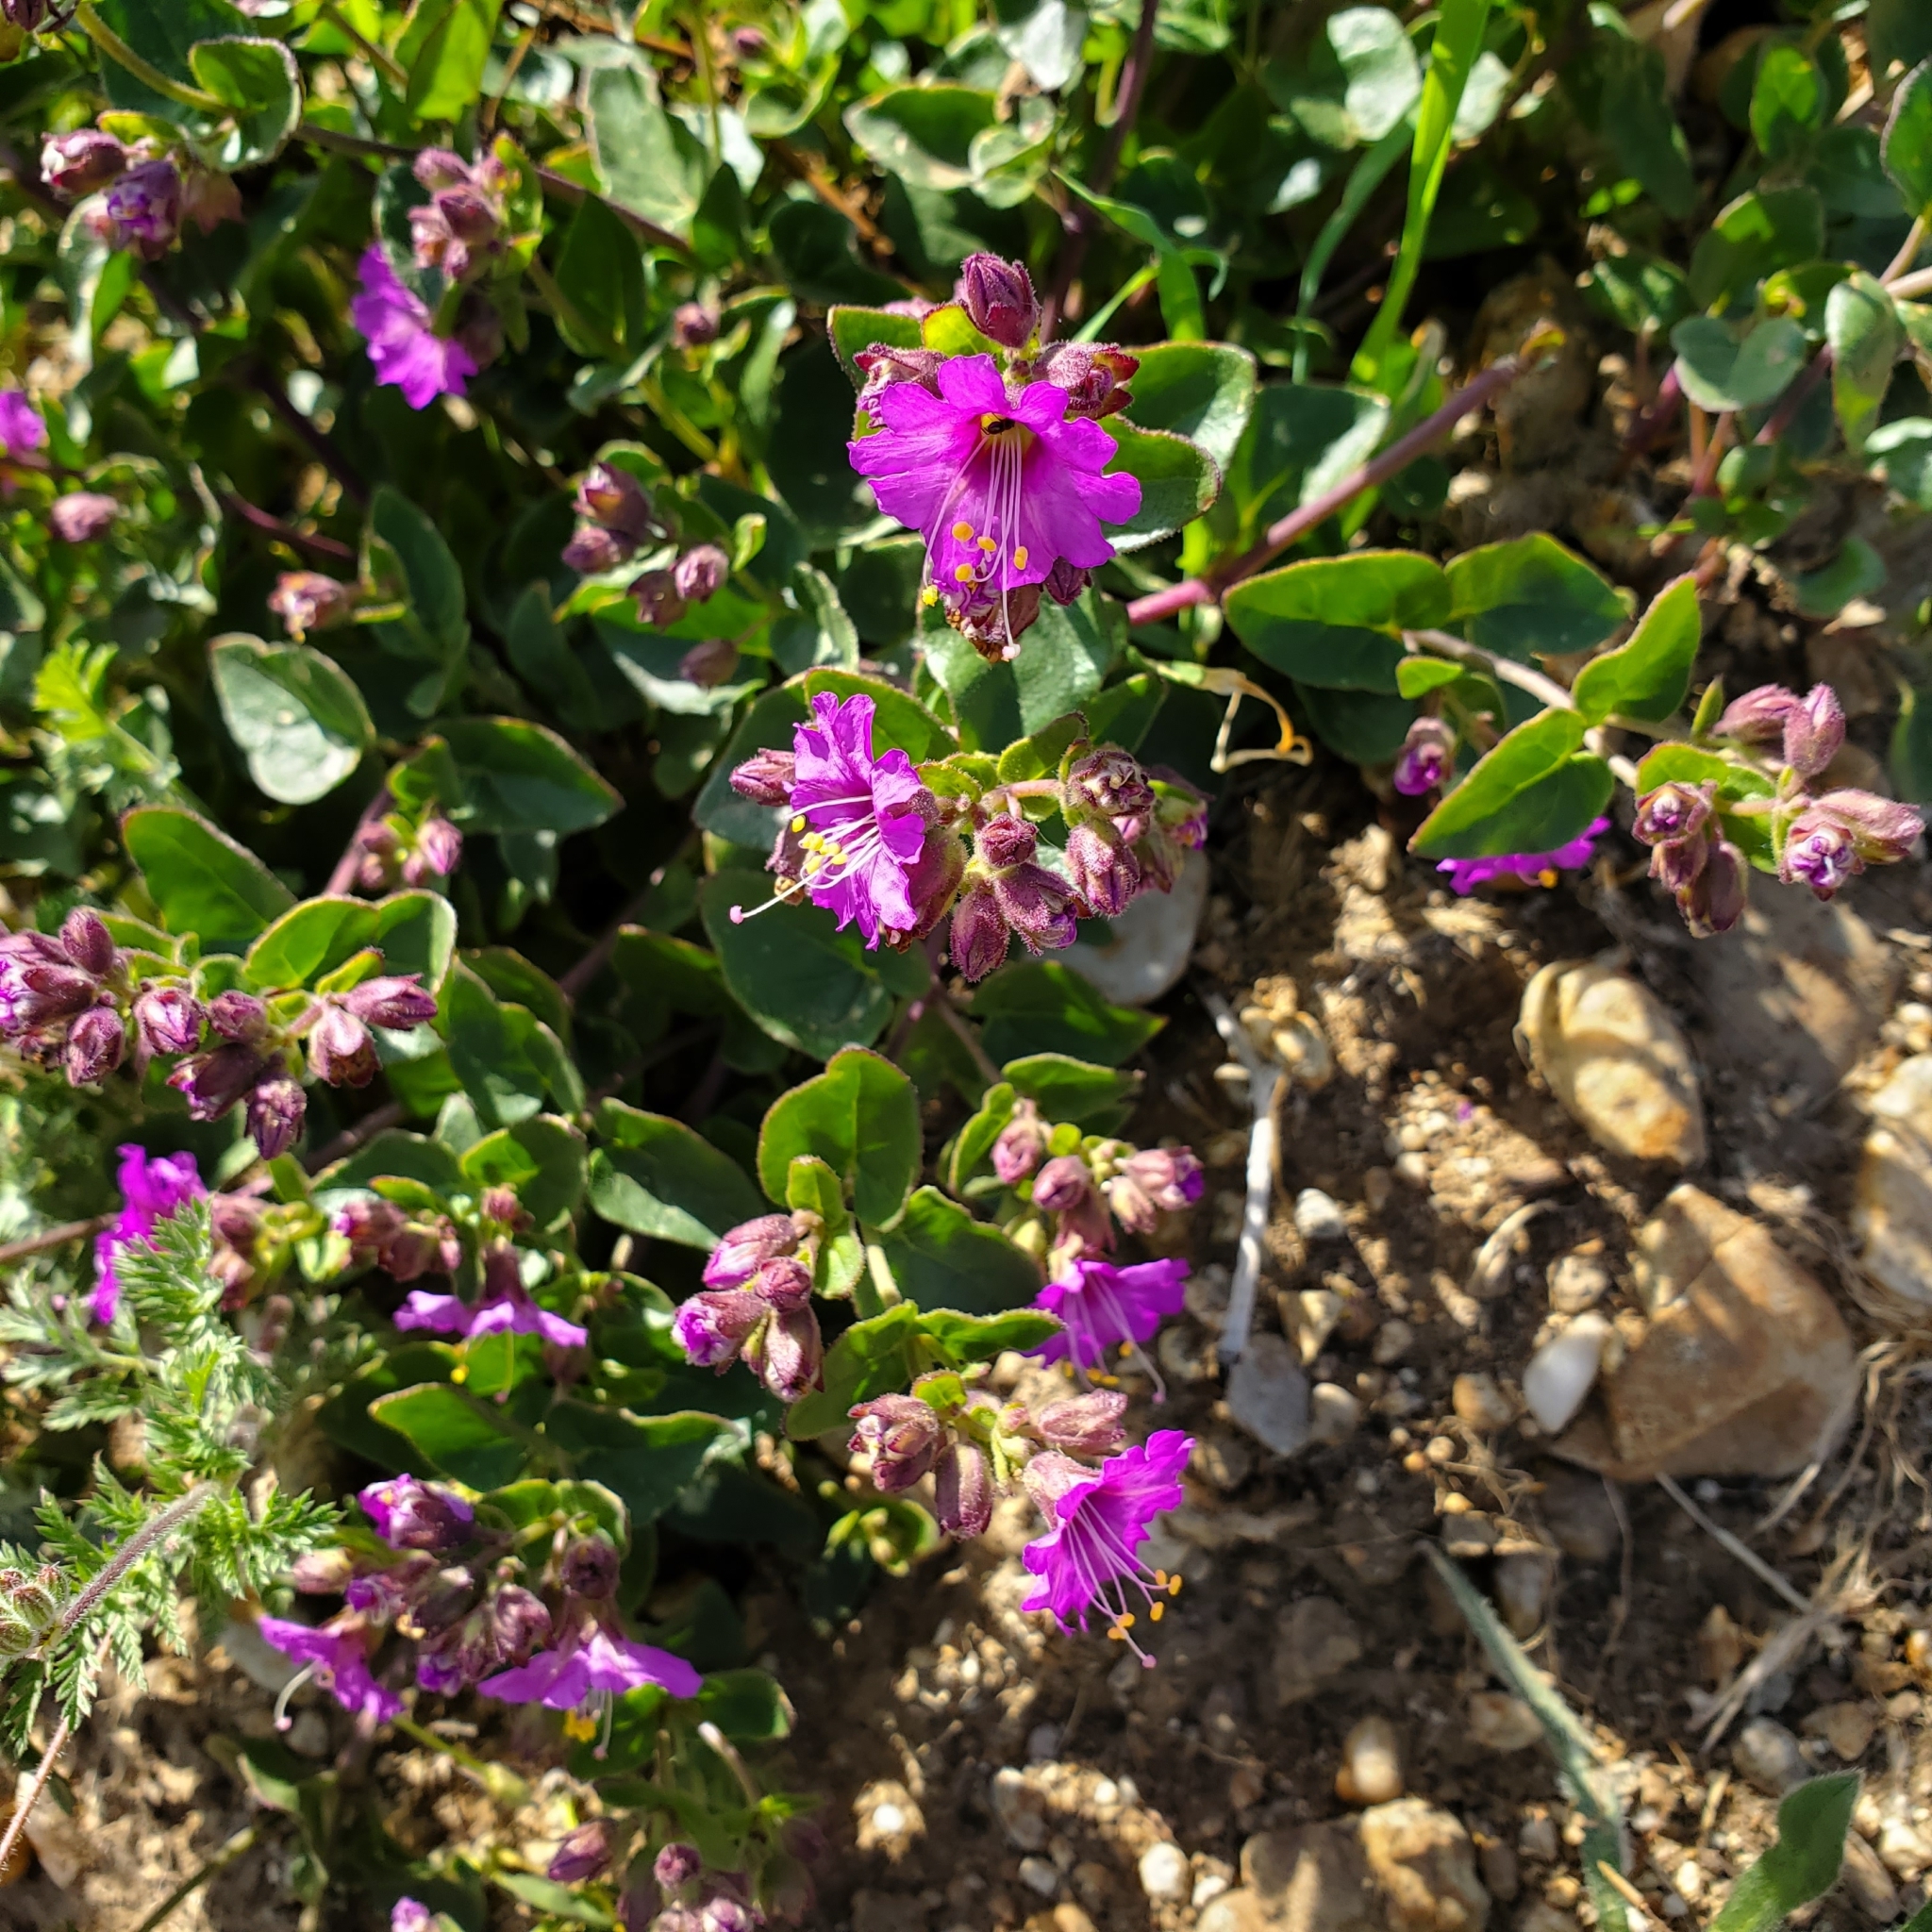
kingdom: Plantae
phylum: Tracheophyta
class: Magnoliopsida
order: Caryophyllales
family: Nyctaginaceae
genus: Mirabilis
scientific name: Mirabilis laevis
